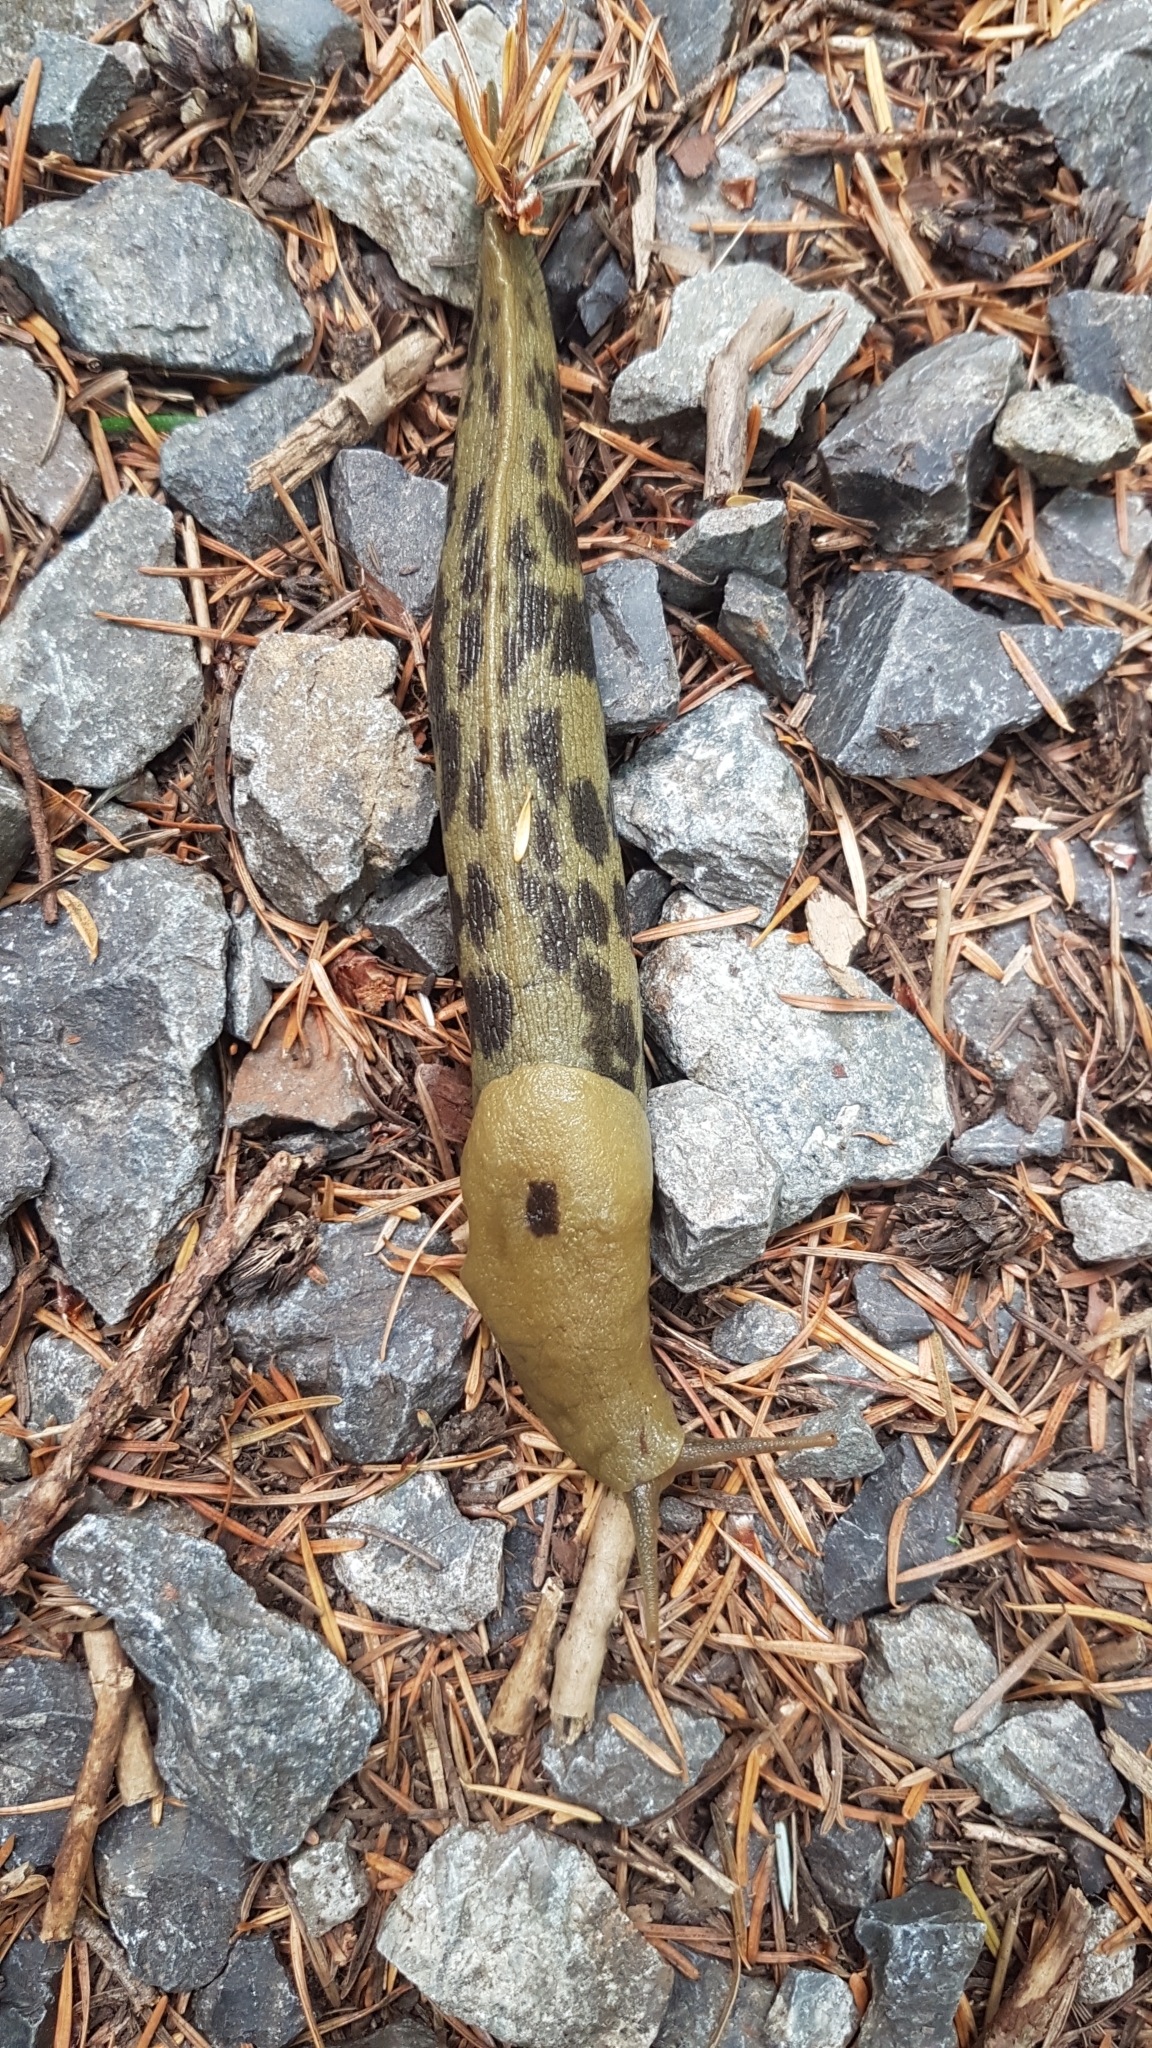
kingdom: Animalia
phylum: Mollusca
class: Gastropoda
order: Stylommatophora
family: Ariolimacidae
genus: Ariolimax
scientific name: Ariolimax columbianus
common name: Pacific banana slug
